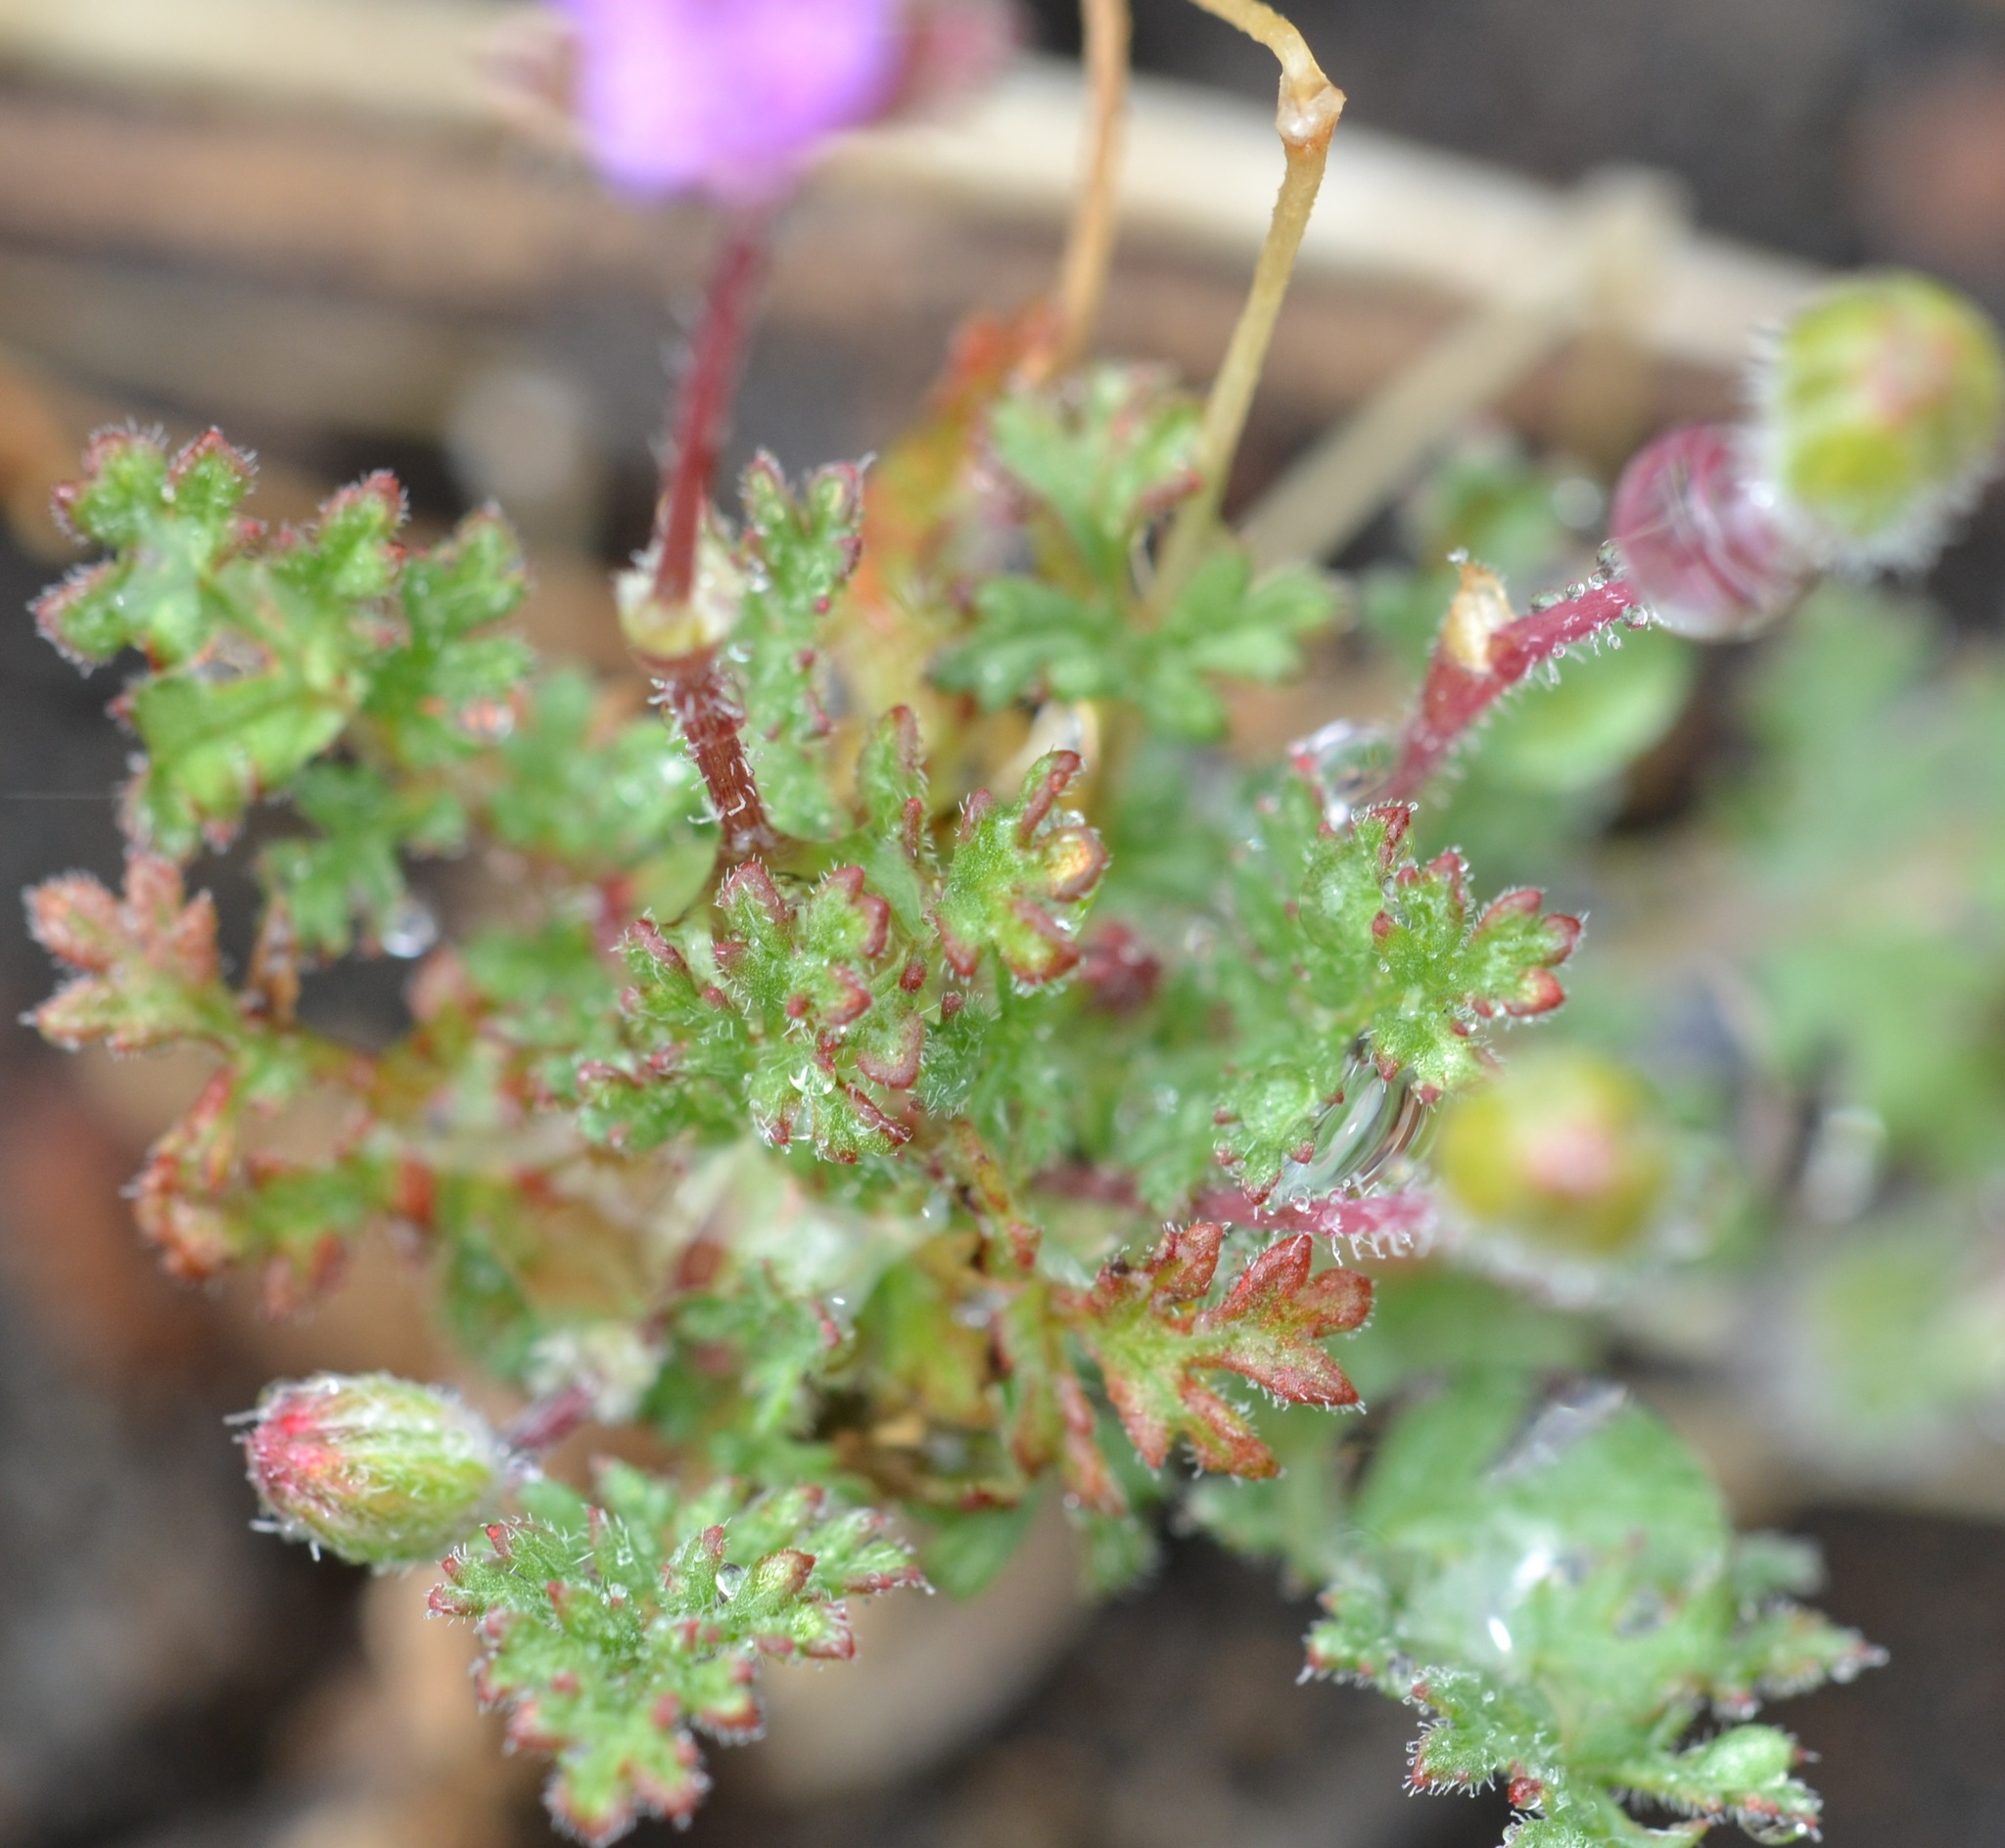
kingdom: Plantae
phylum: Tracheophyta
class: Magnoliopsida
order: Geraniales
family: Geraniaceae
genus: Erodium
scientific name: Erodium cicutarium
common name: Common stork's-bill
